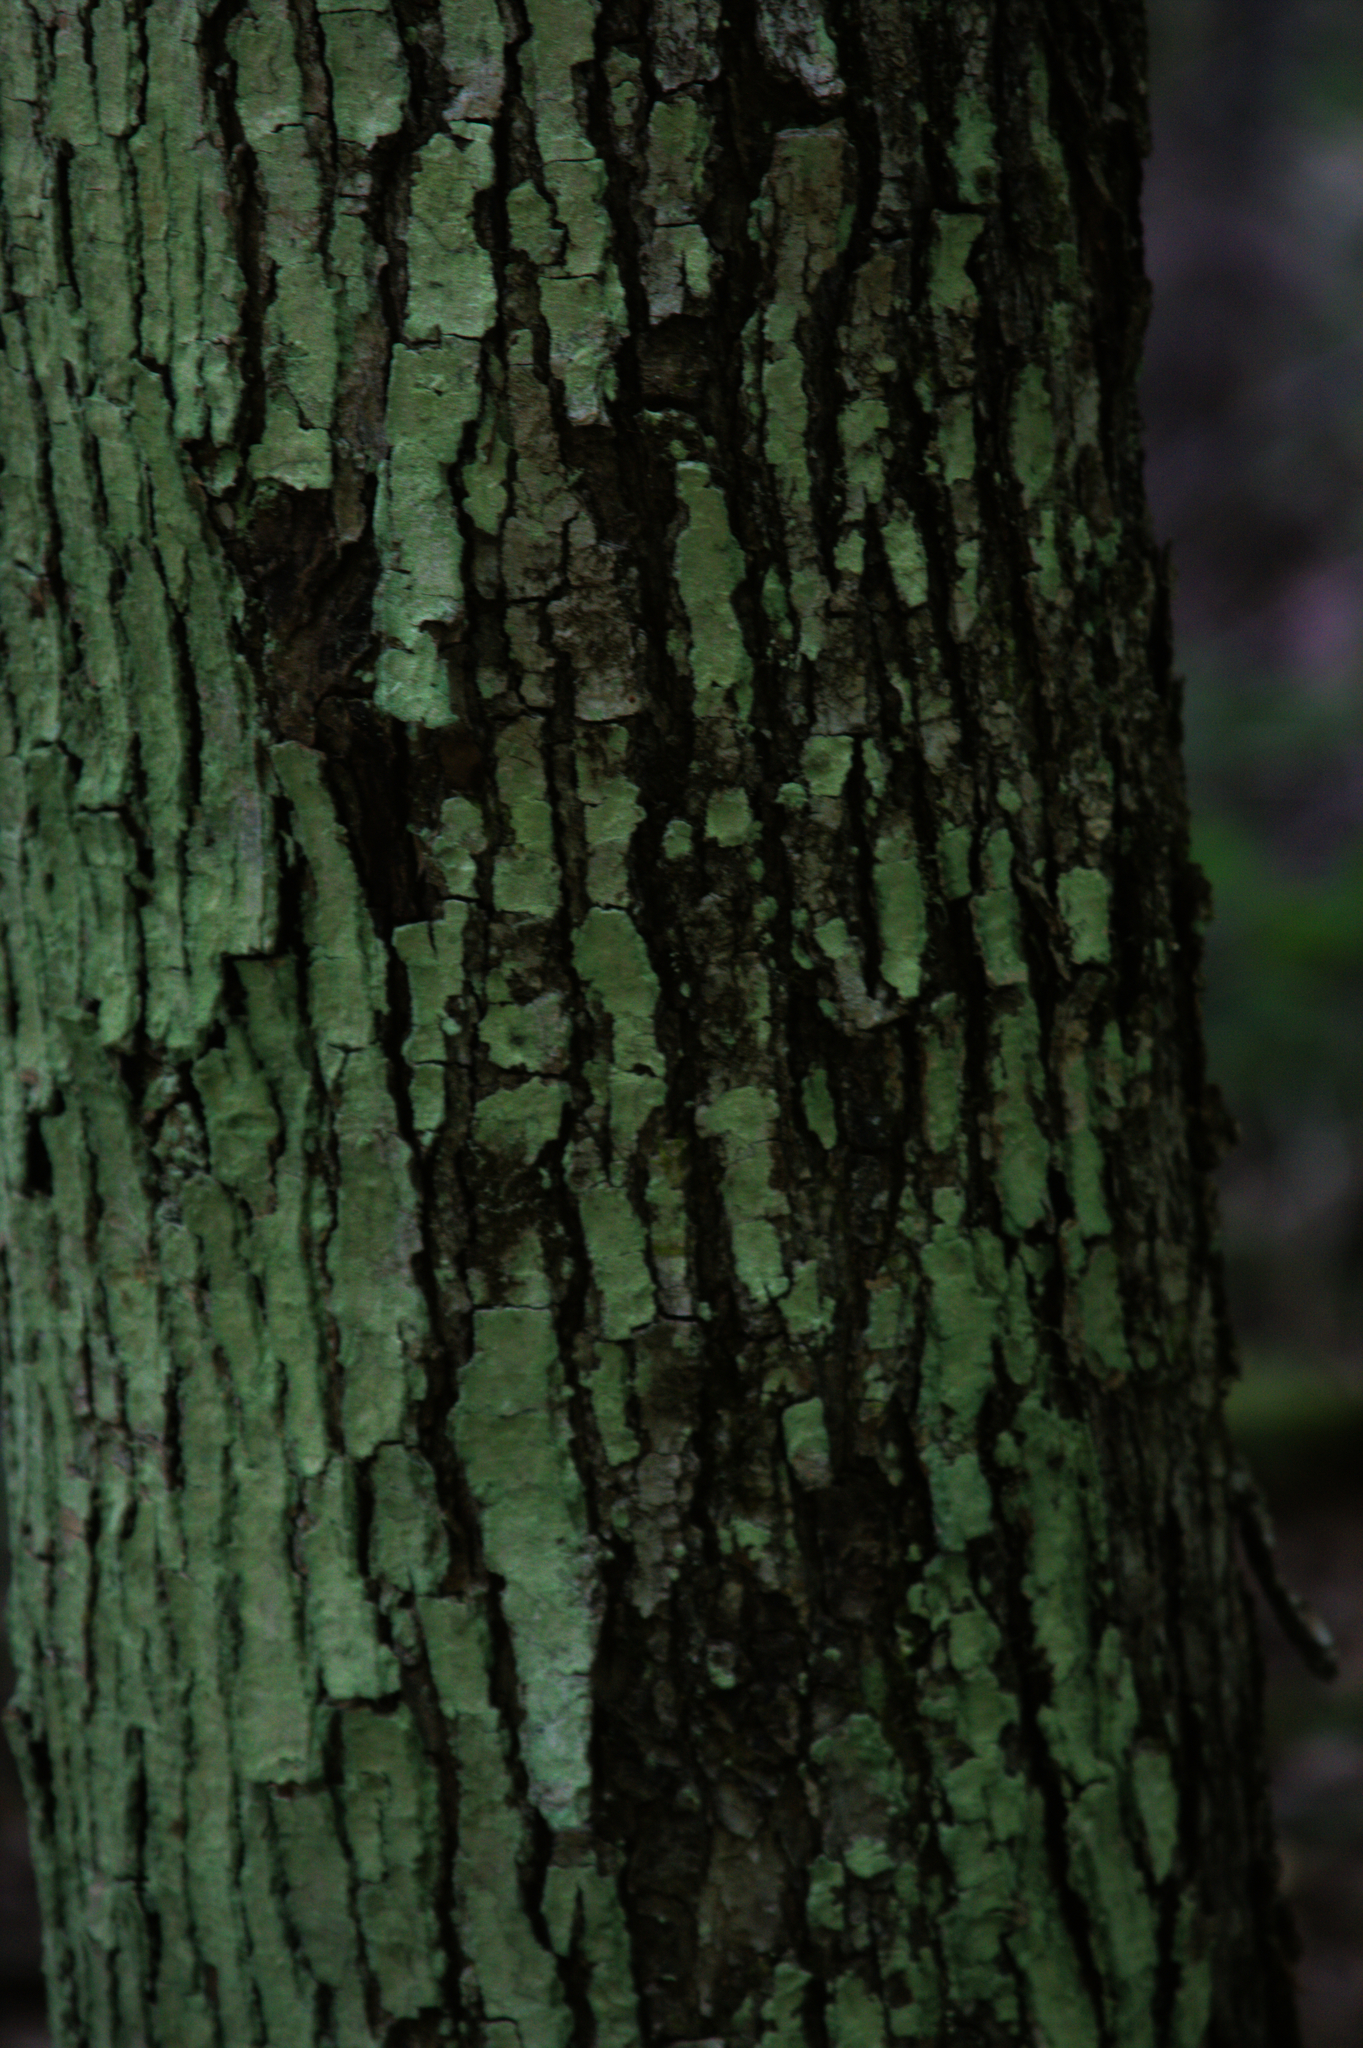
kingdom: Plantae
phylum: Tracheophyta
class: Magnoliopsida
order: Sapindales
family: Sapindaceae
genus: Acer
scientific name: Acer rubrum
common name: Red maple
